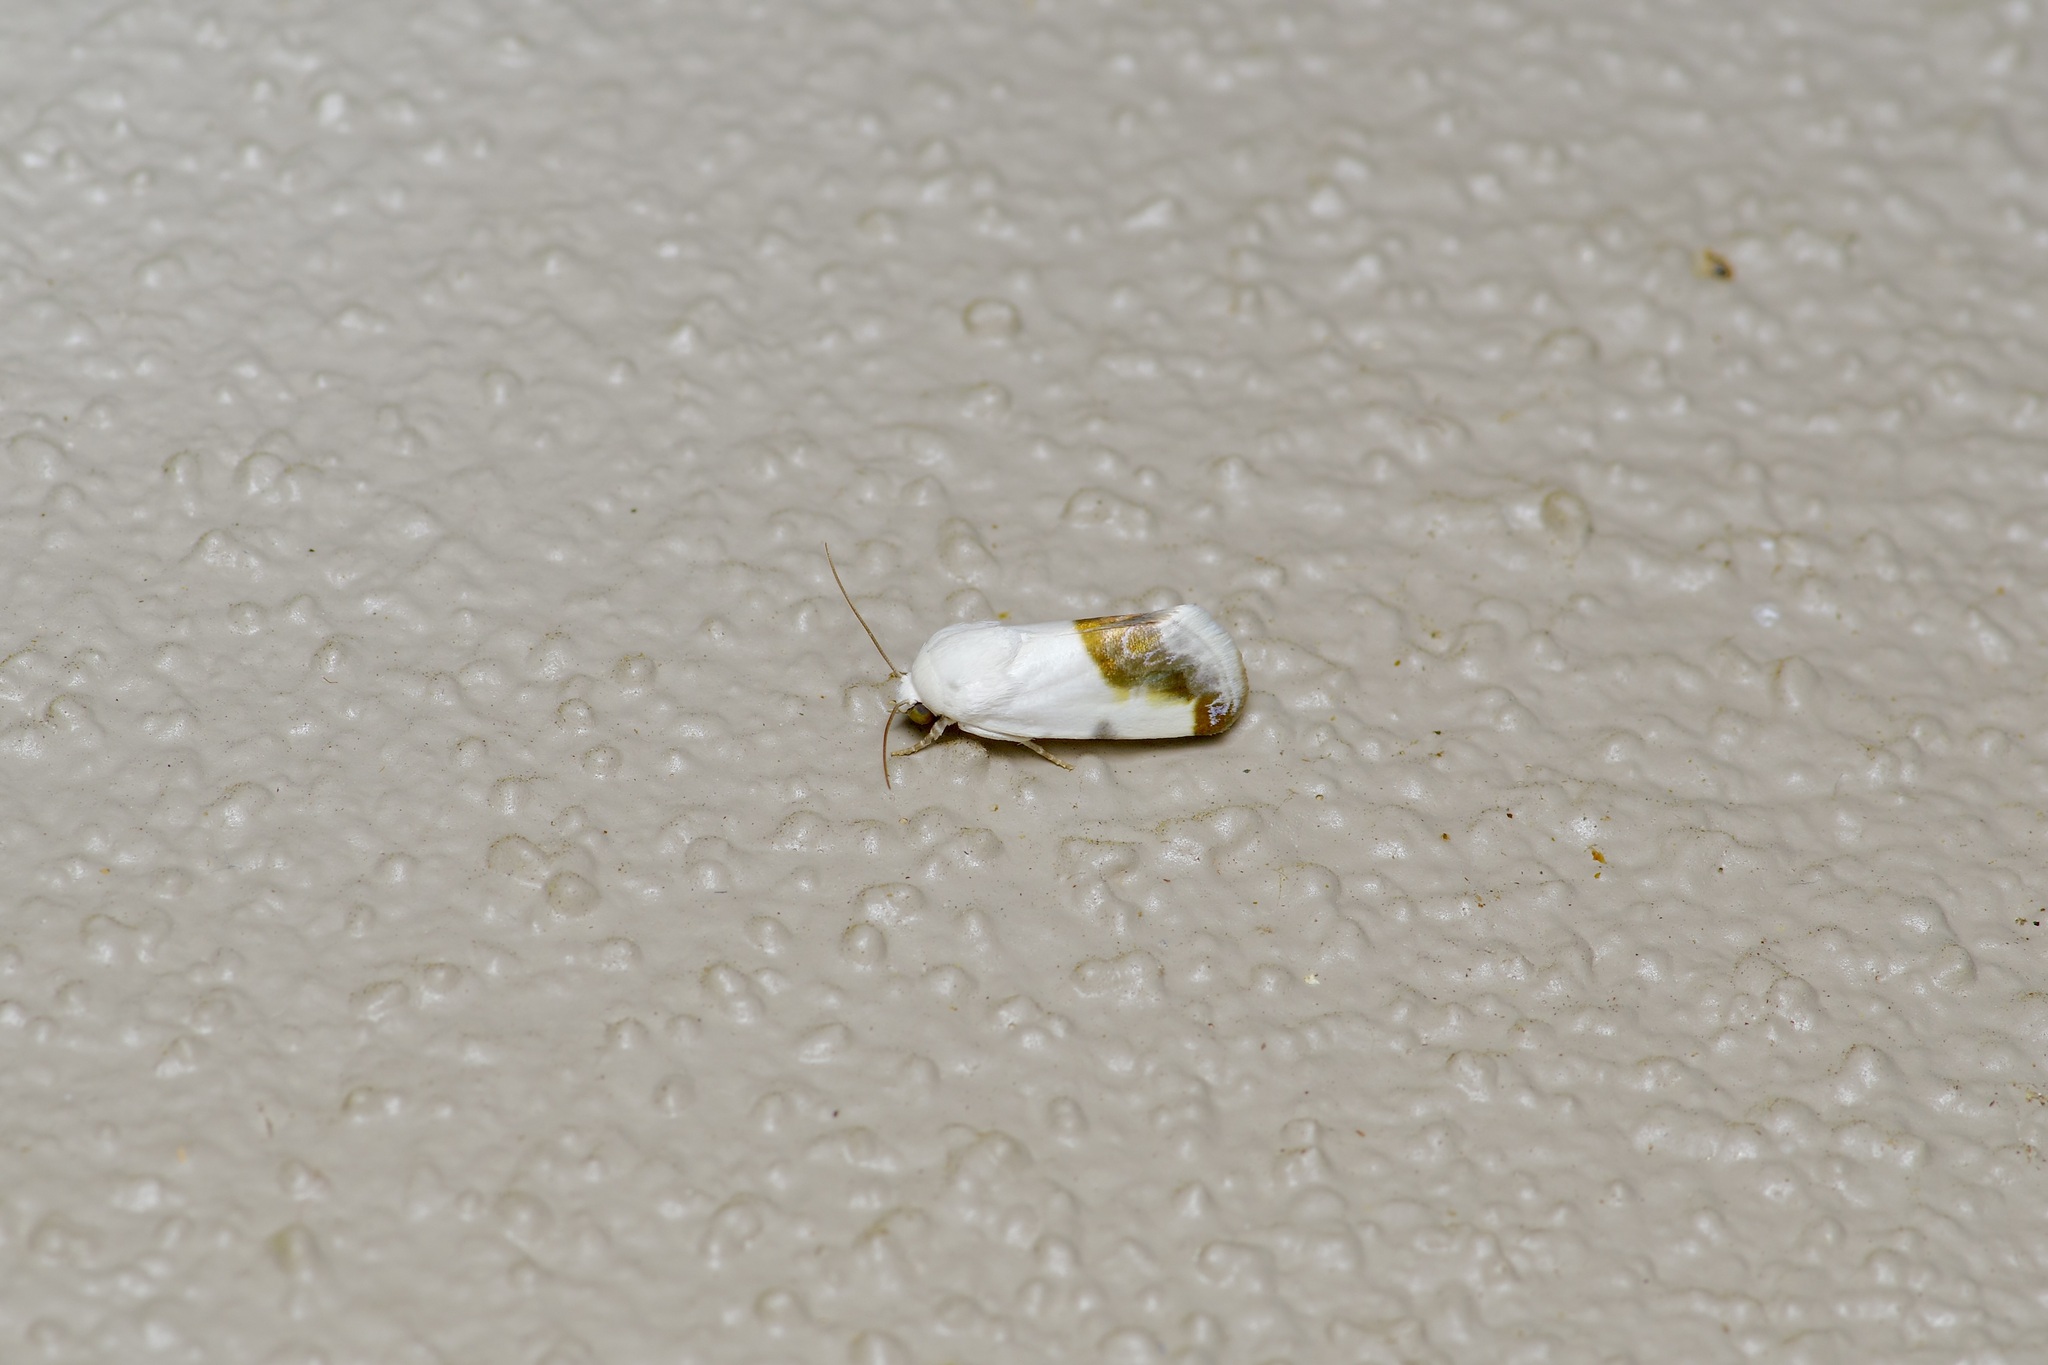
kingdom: Animalia
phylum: Arthropoda
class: Insecta
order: Lepidoptera
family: Noctuidae
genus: Acontia
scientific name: Acontia cretata
